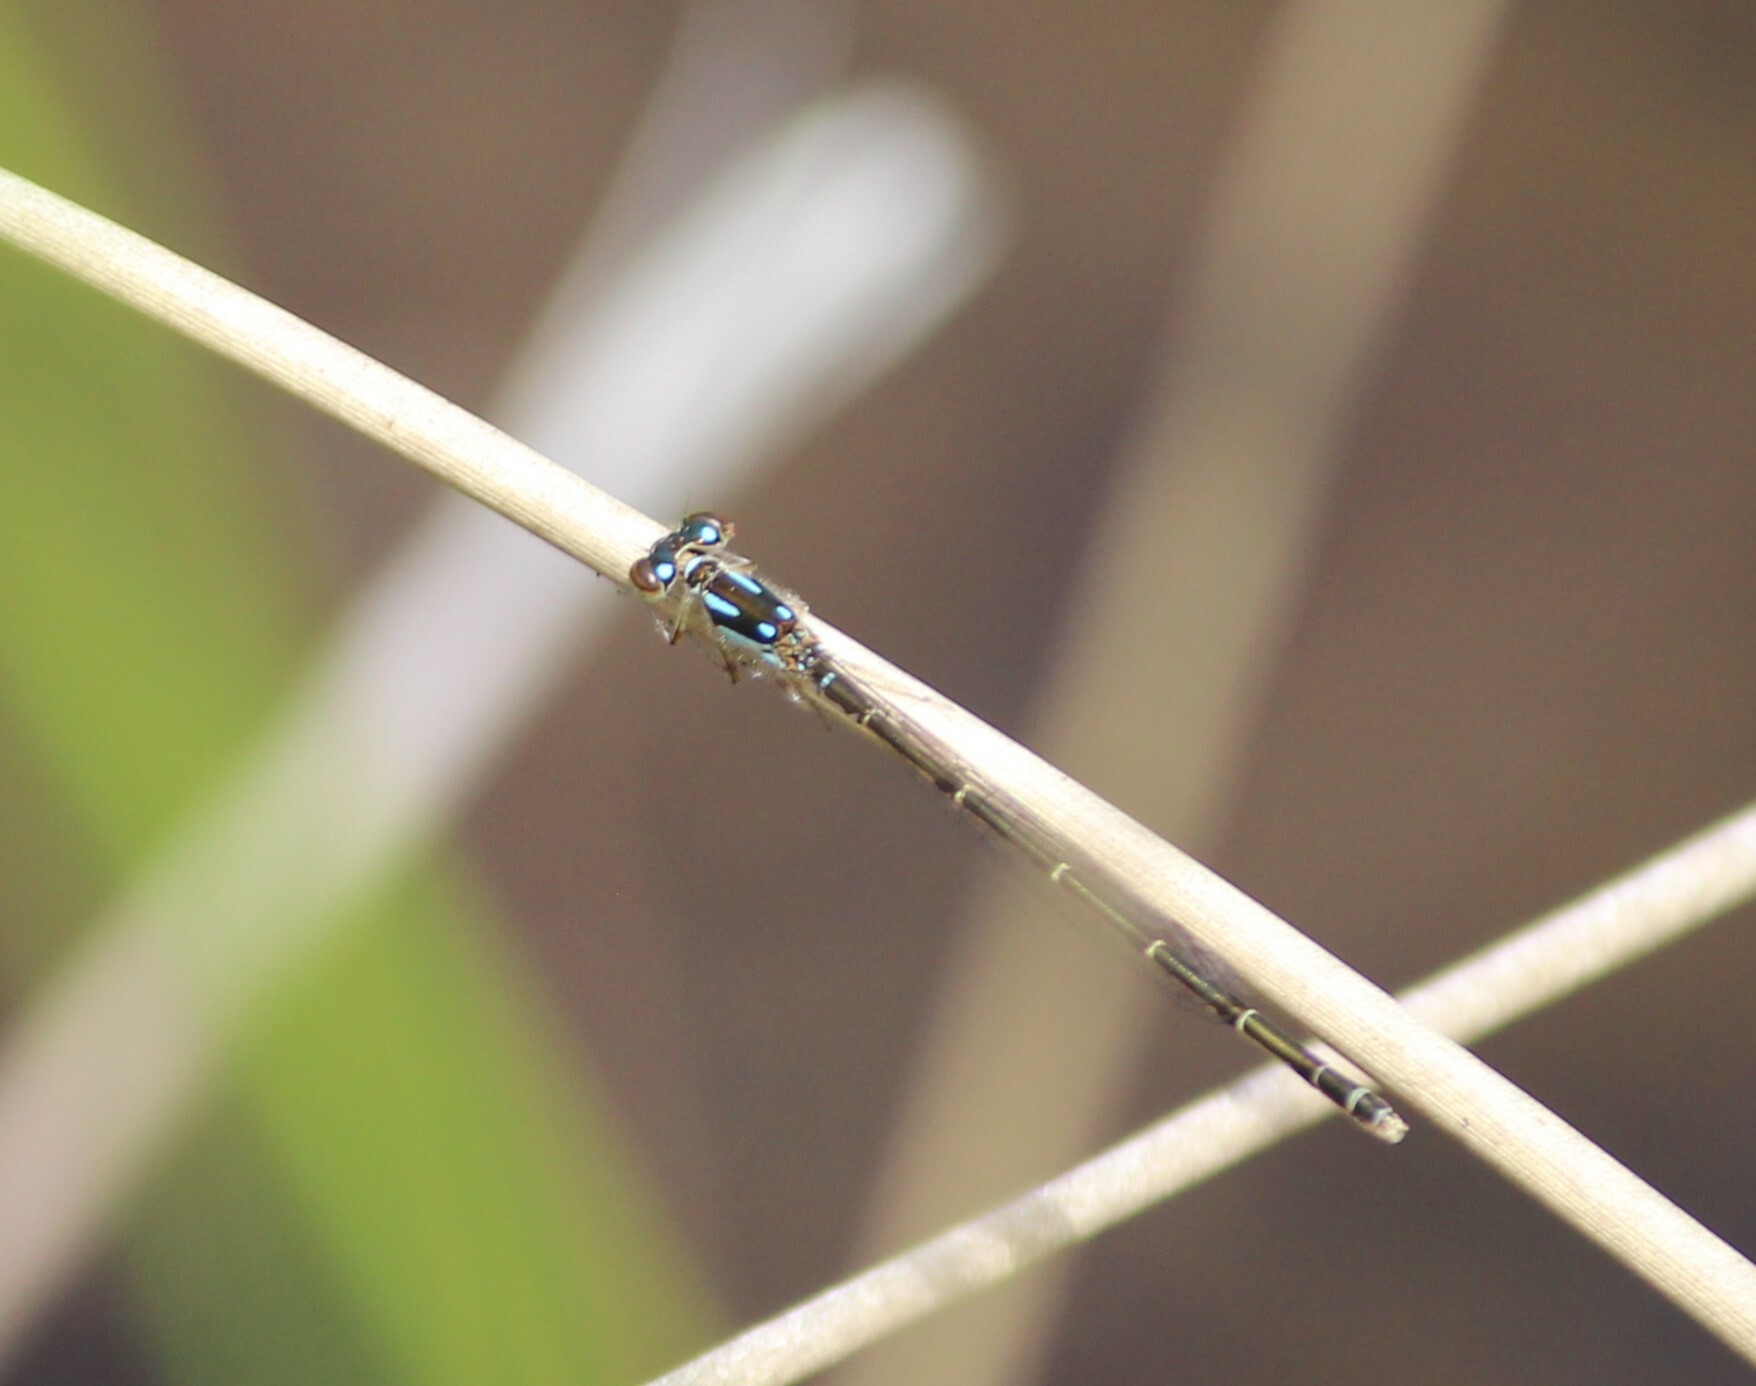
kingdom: Animalia
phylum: Arthropoda
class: Insecta
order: Odonata
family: Coenagrionidae
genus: Ischnura
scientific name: Ischnura posita
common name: Fragile forktail
